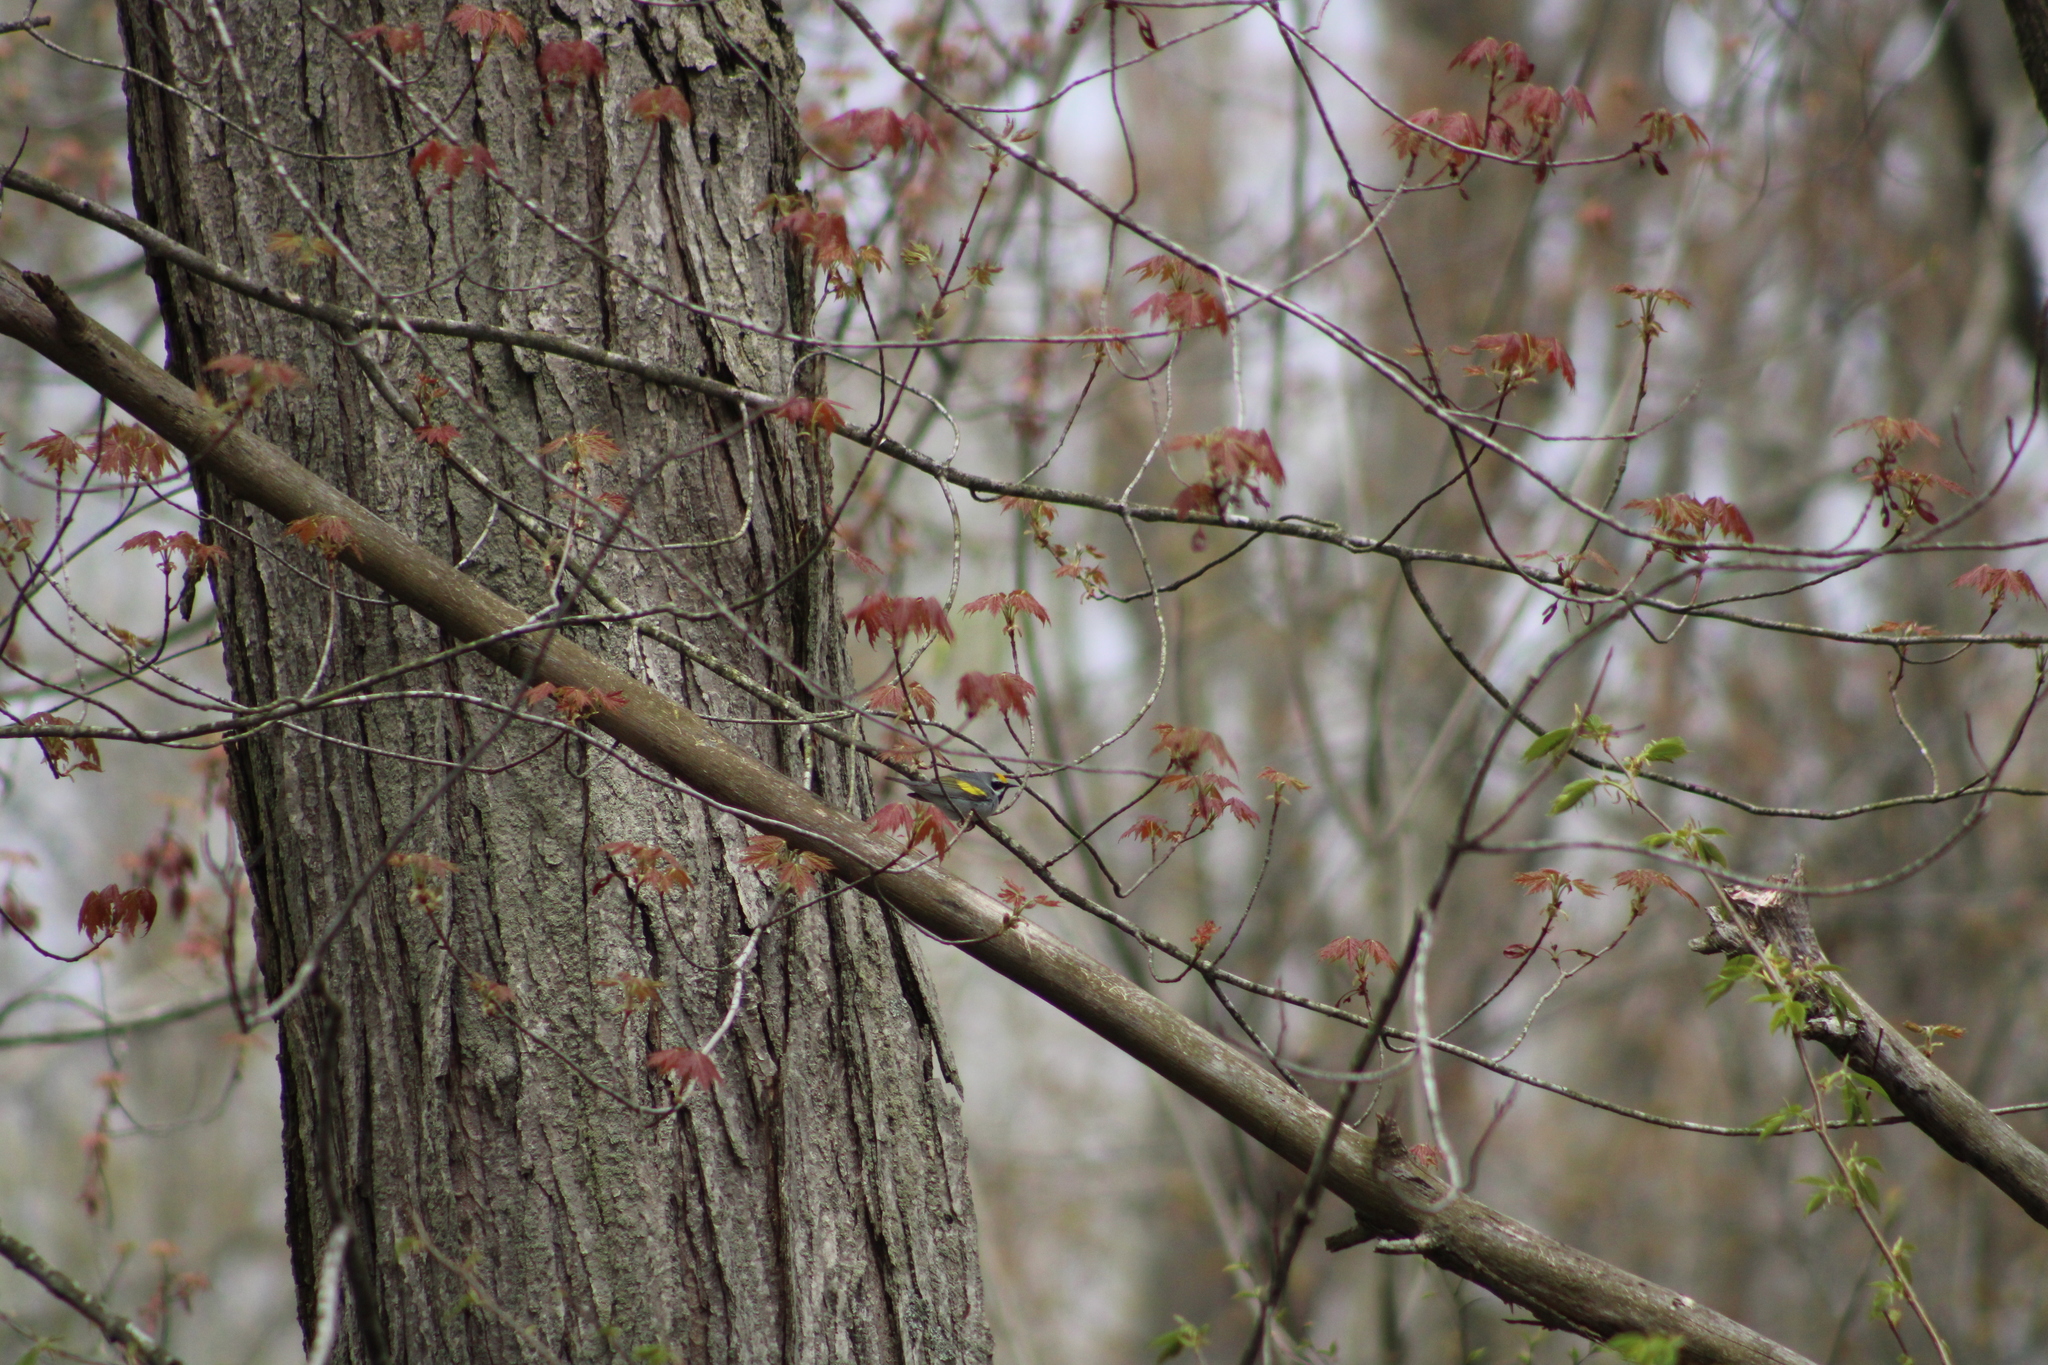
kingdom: Animalia
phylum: Chordata
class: Aves
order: Passeriformes
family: Parulidae
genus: Vermivora
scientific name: Vermivora chrysoptera
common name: Golden-winged warbler
